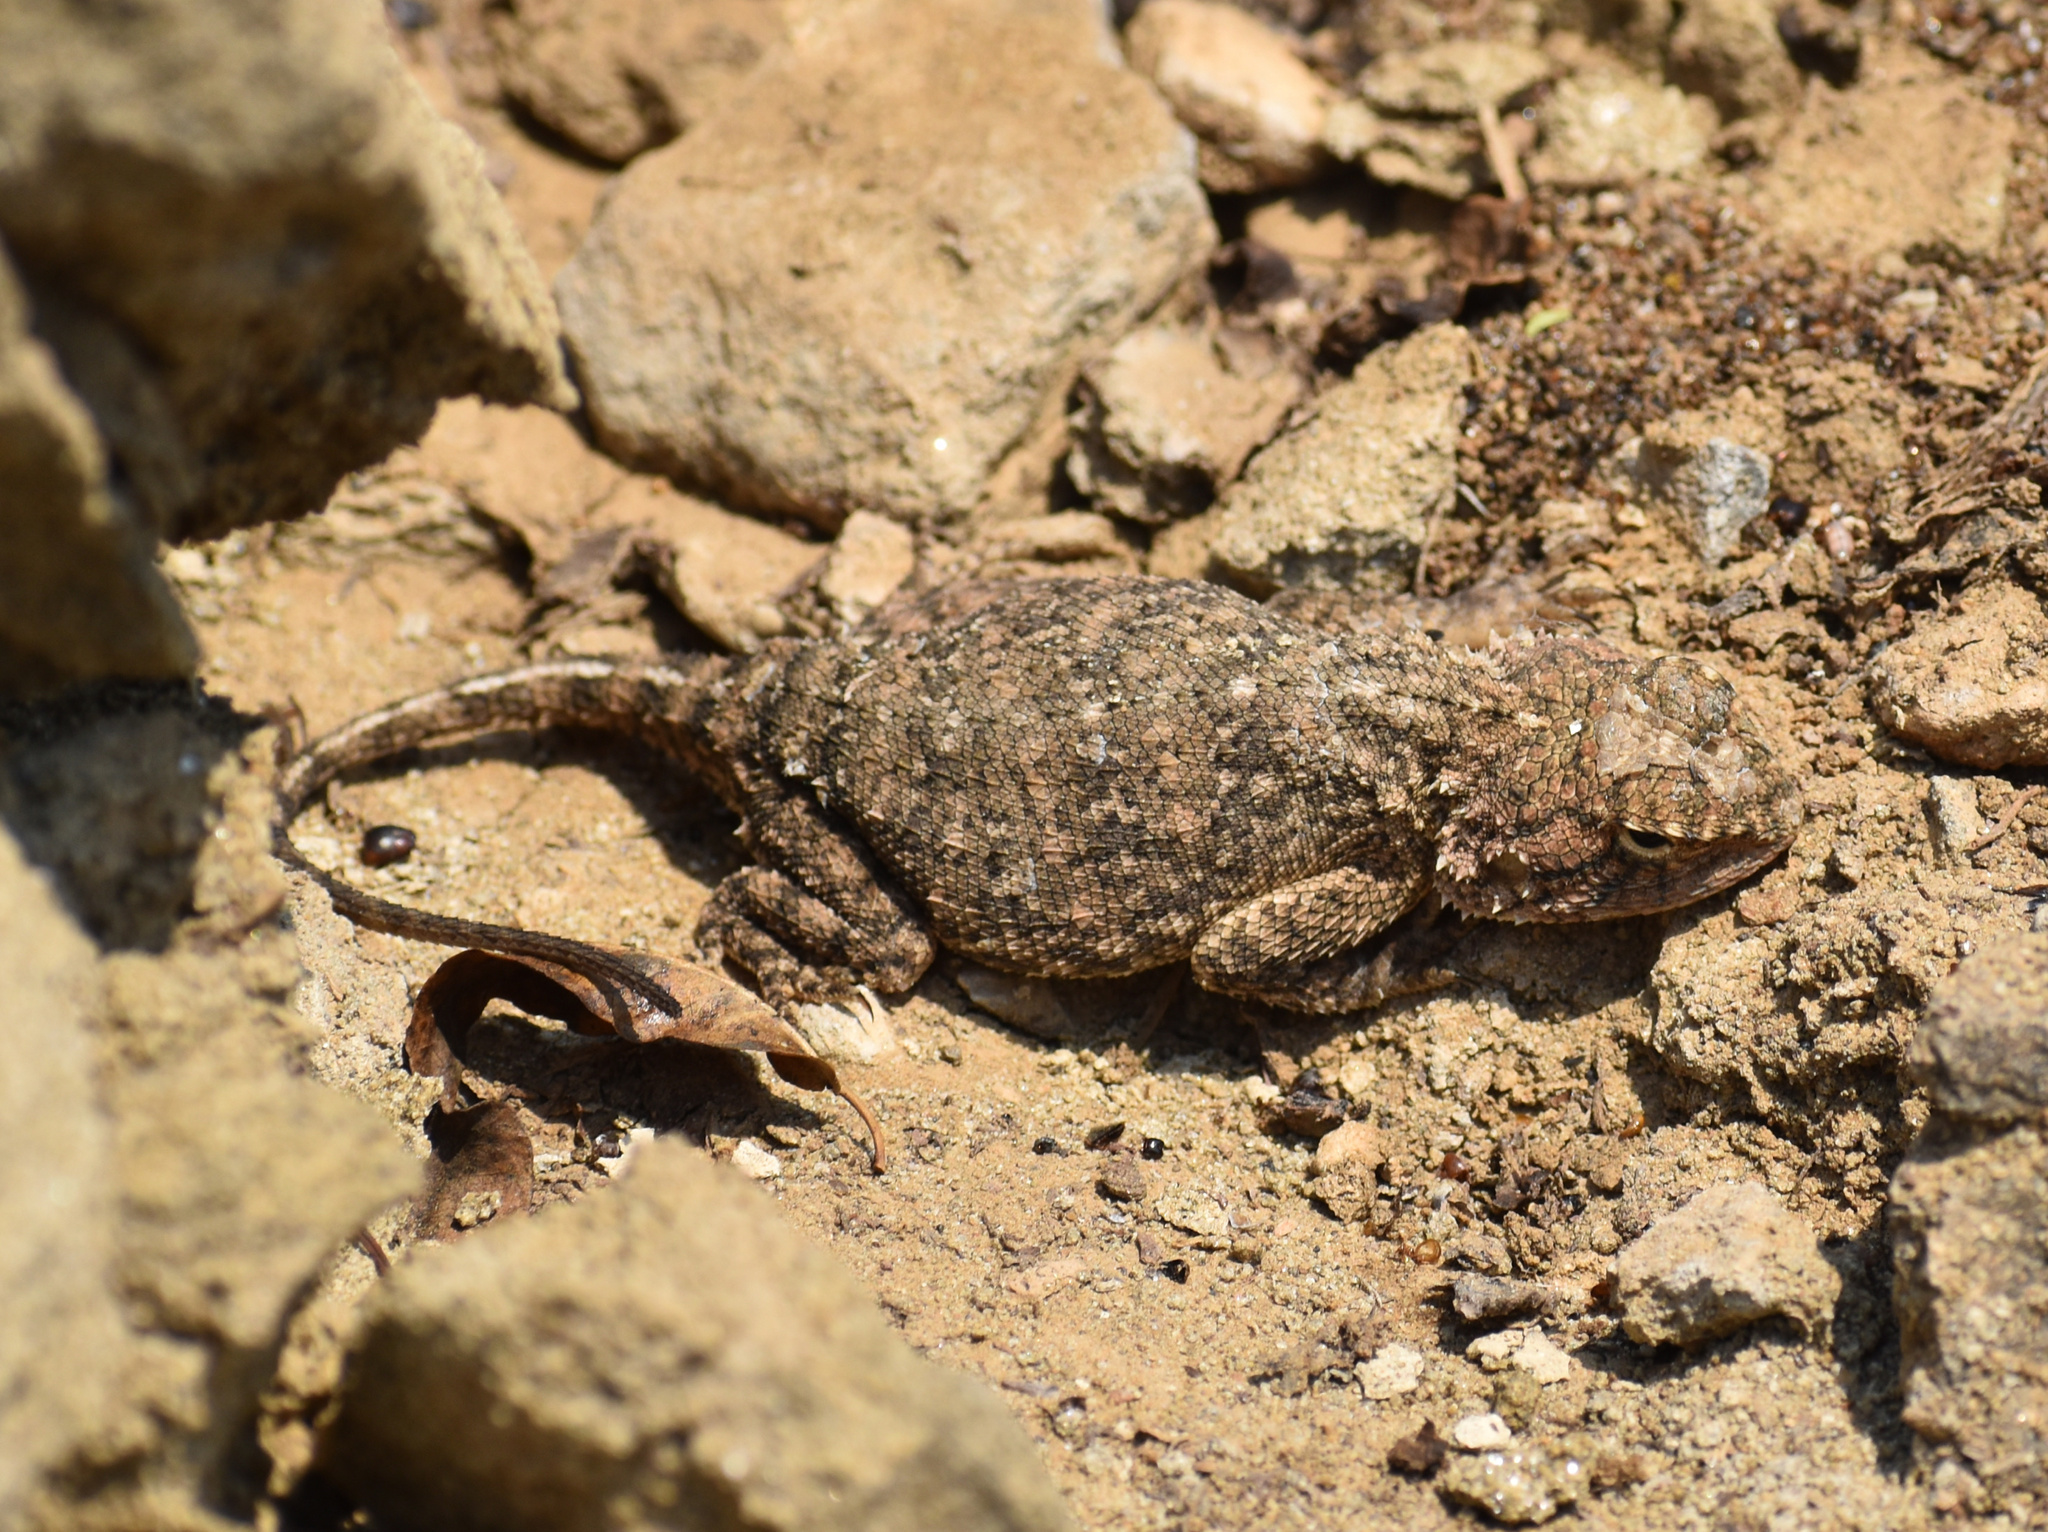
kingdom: Animalia
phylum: Chordata
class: Squamata
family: Agamidae
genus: Agama
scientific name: Agama aculeata
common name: Common ground agama
